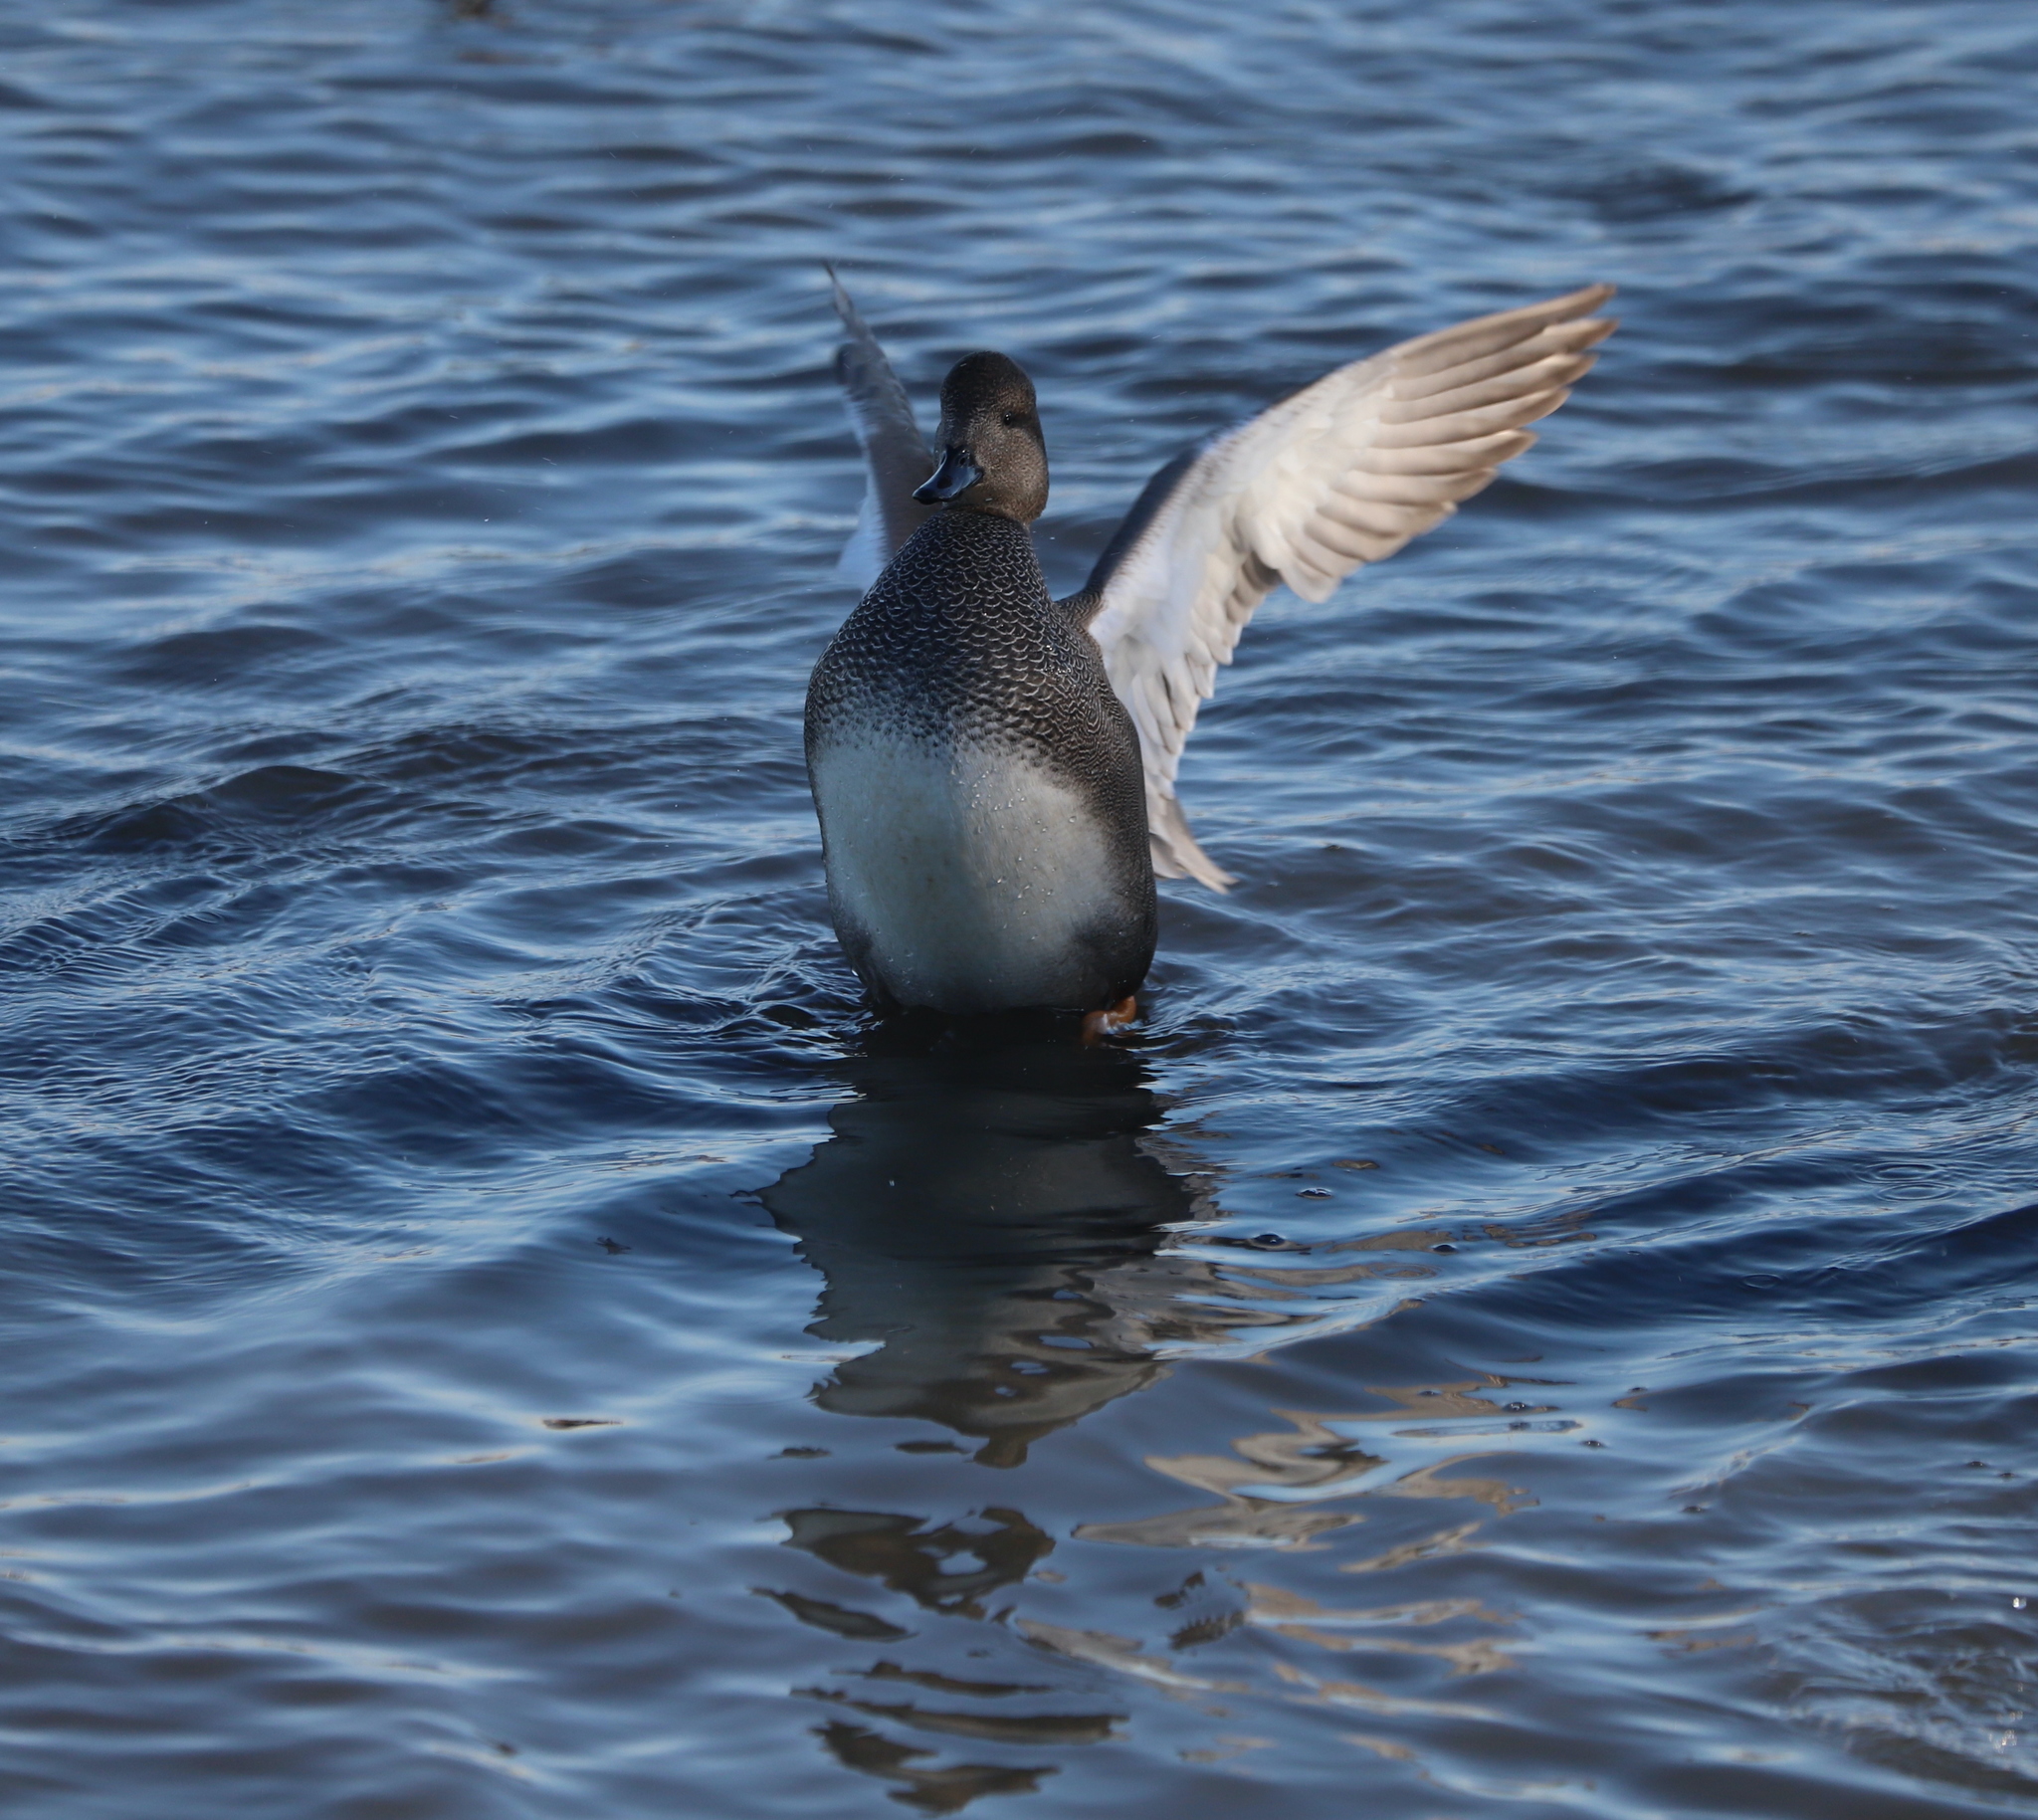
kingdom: Animalia
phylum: Chordata
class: Aves
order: Anseriformes
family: Anatidae
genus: Mareca
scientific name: Mareca strepera
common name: Gadwall
